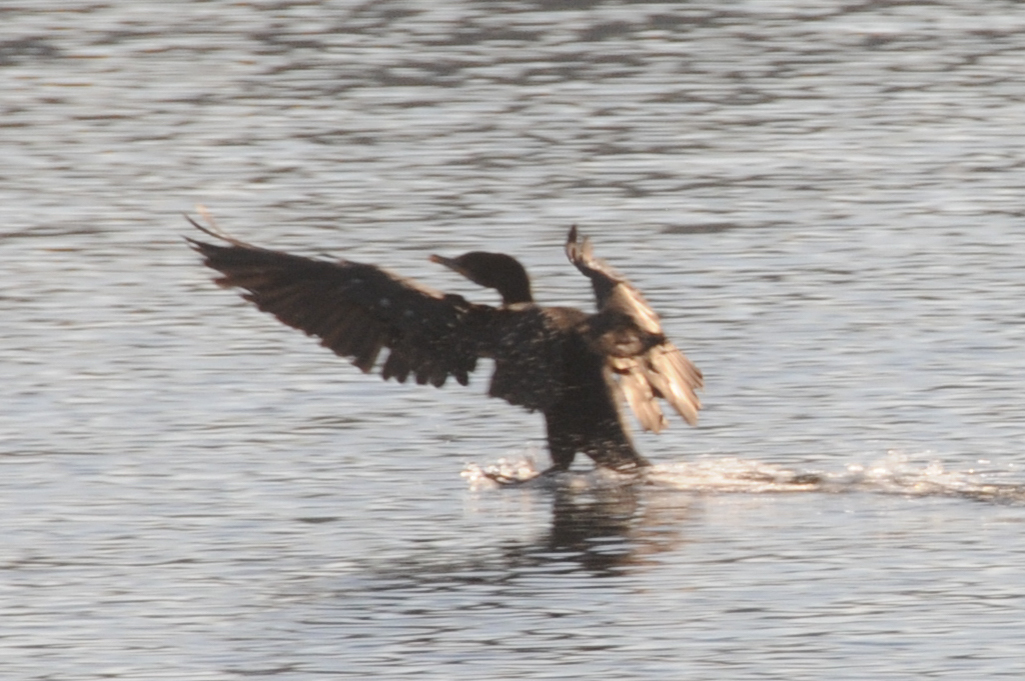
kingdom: Animalia
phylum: Chordata
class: Aves
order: Suliformes
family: Phalacrocoracidae
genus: Phalacrocorax
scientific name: Phalacrocorax auritus
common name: Double-crested cormorant
